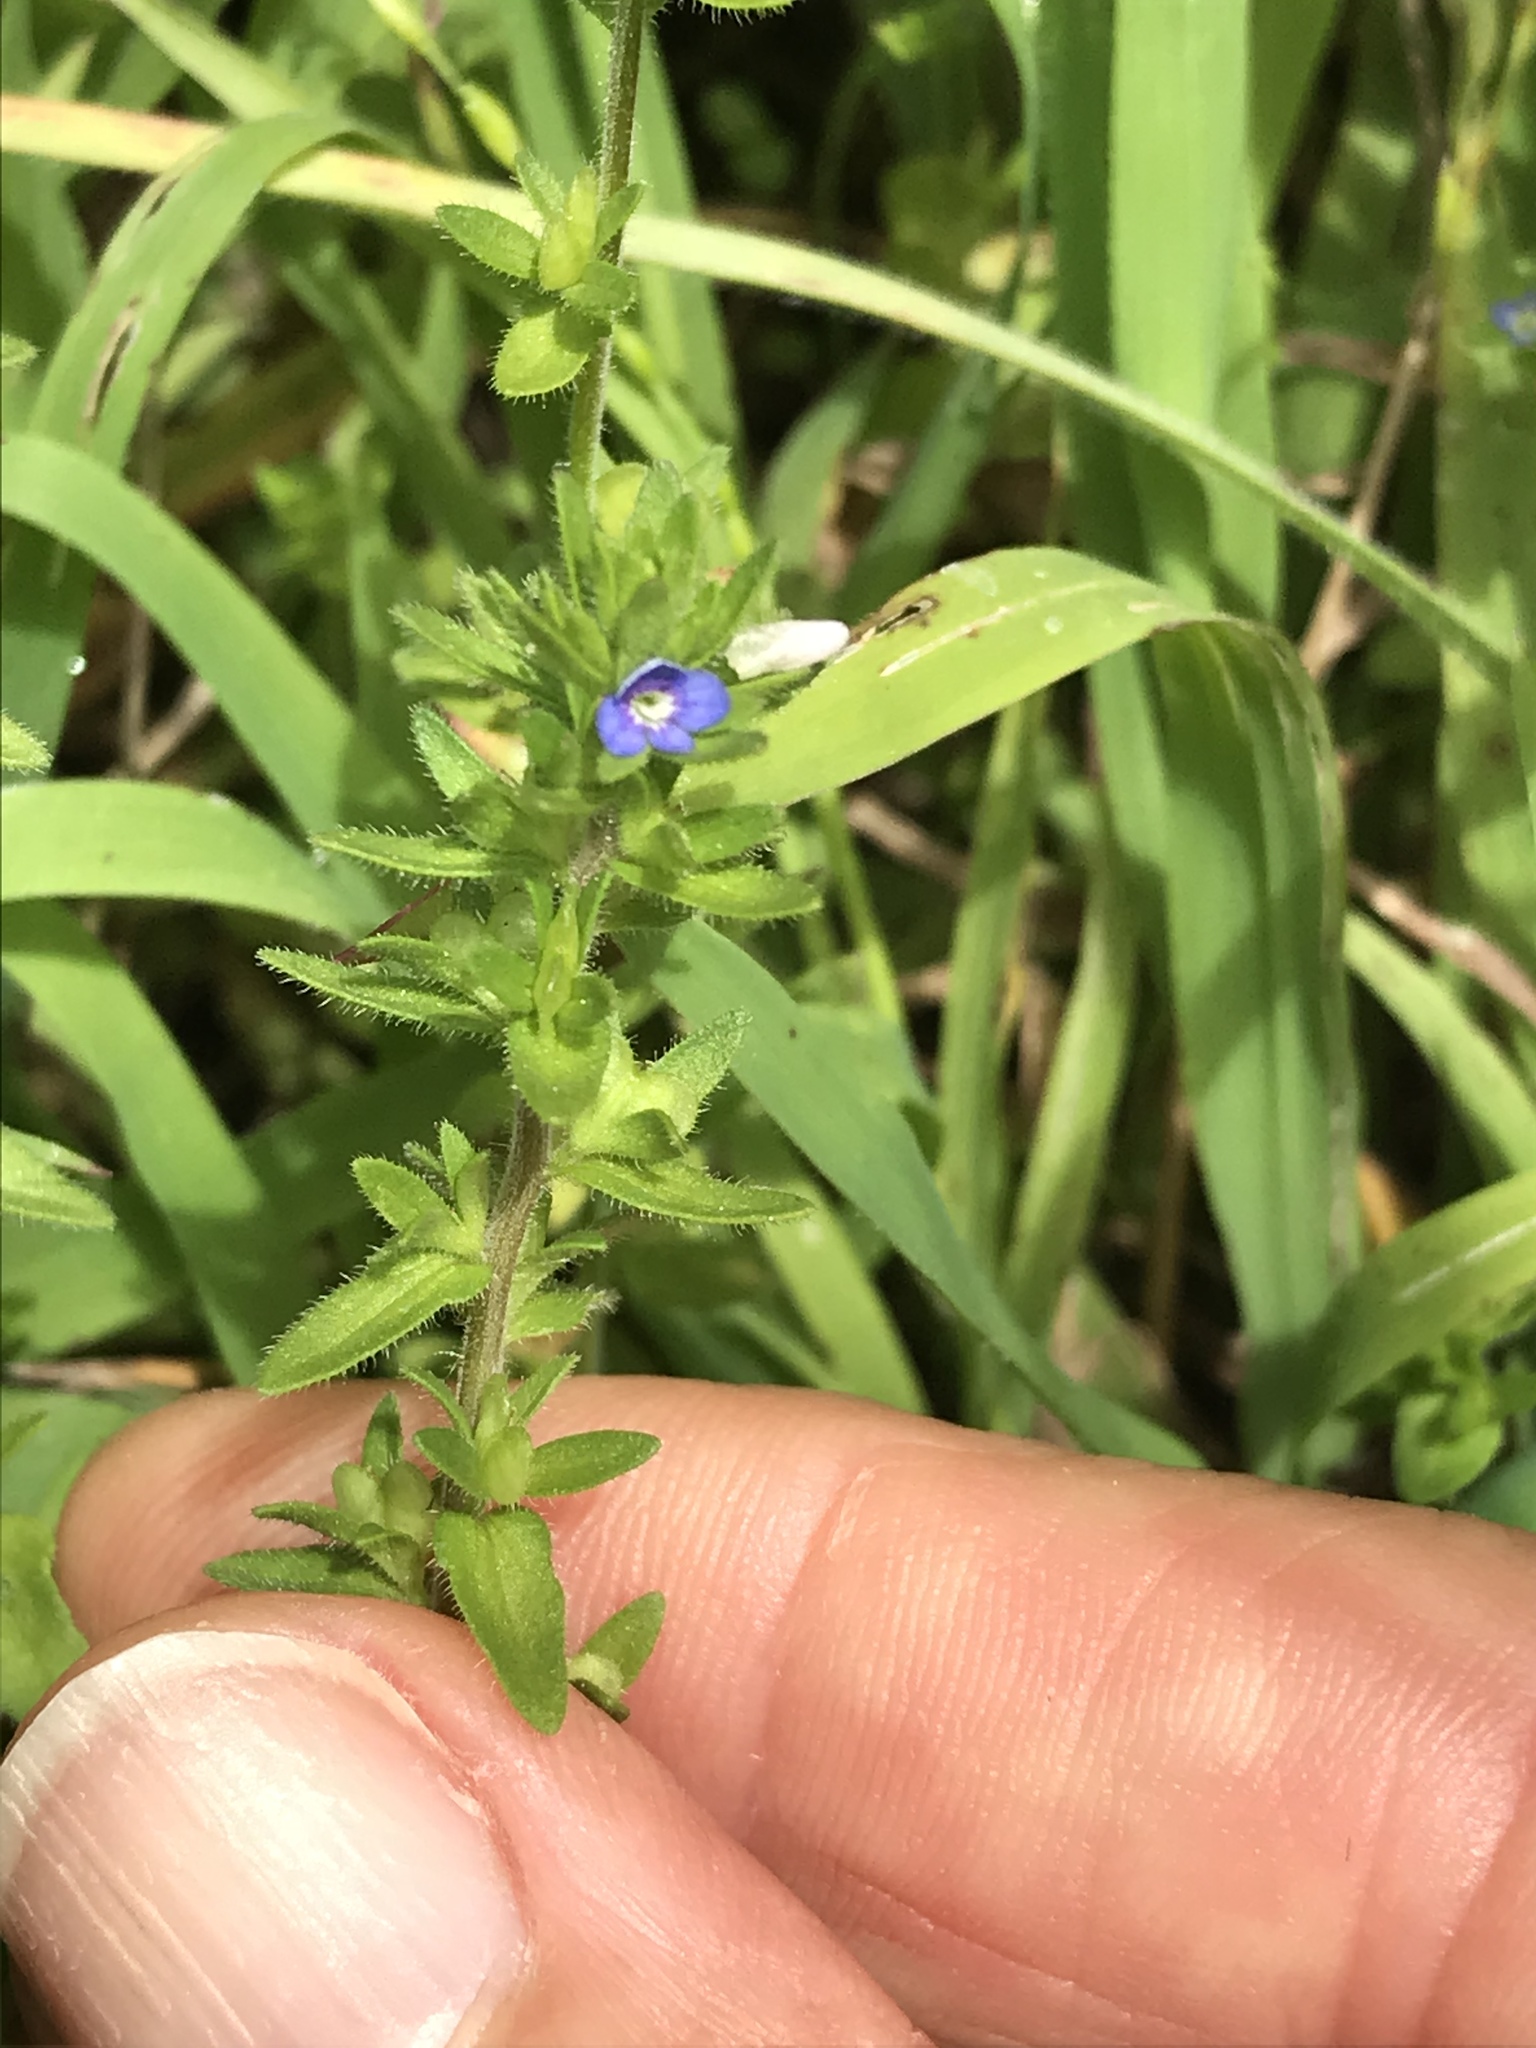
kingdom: Plantae
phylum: Tracheophyta
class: Magnoliopsida
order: Lamiales
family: Plantaginaceae
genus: Veronica
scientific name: Veronica arvensis
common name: Corn speedwell
